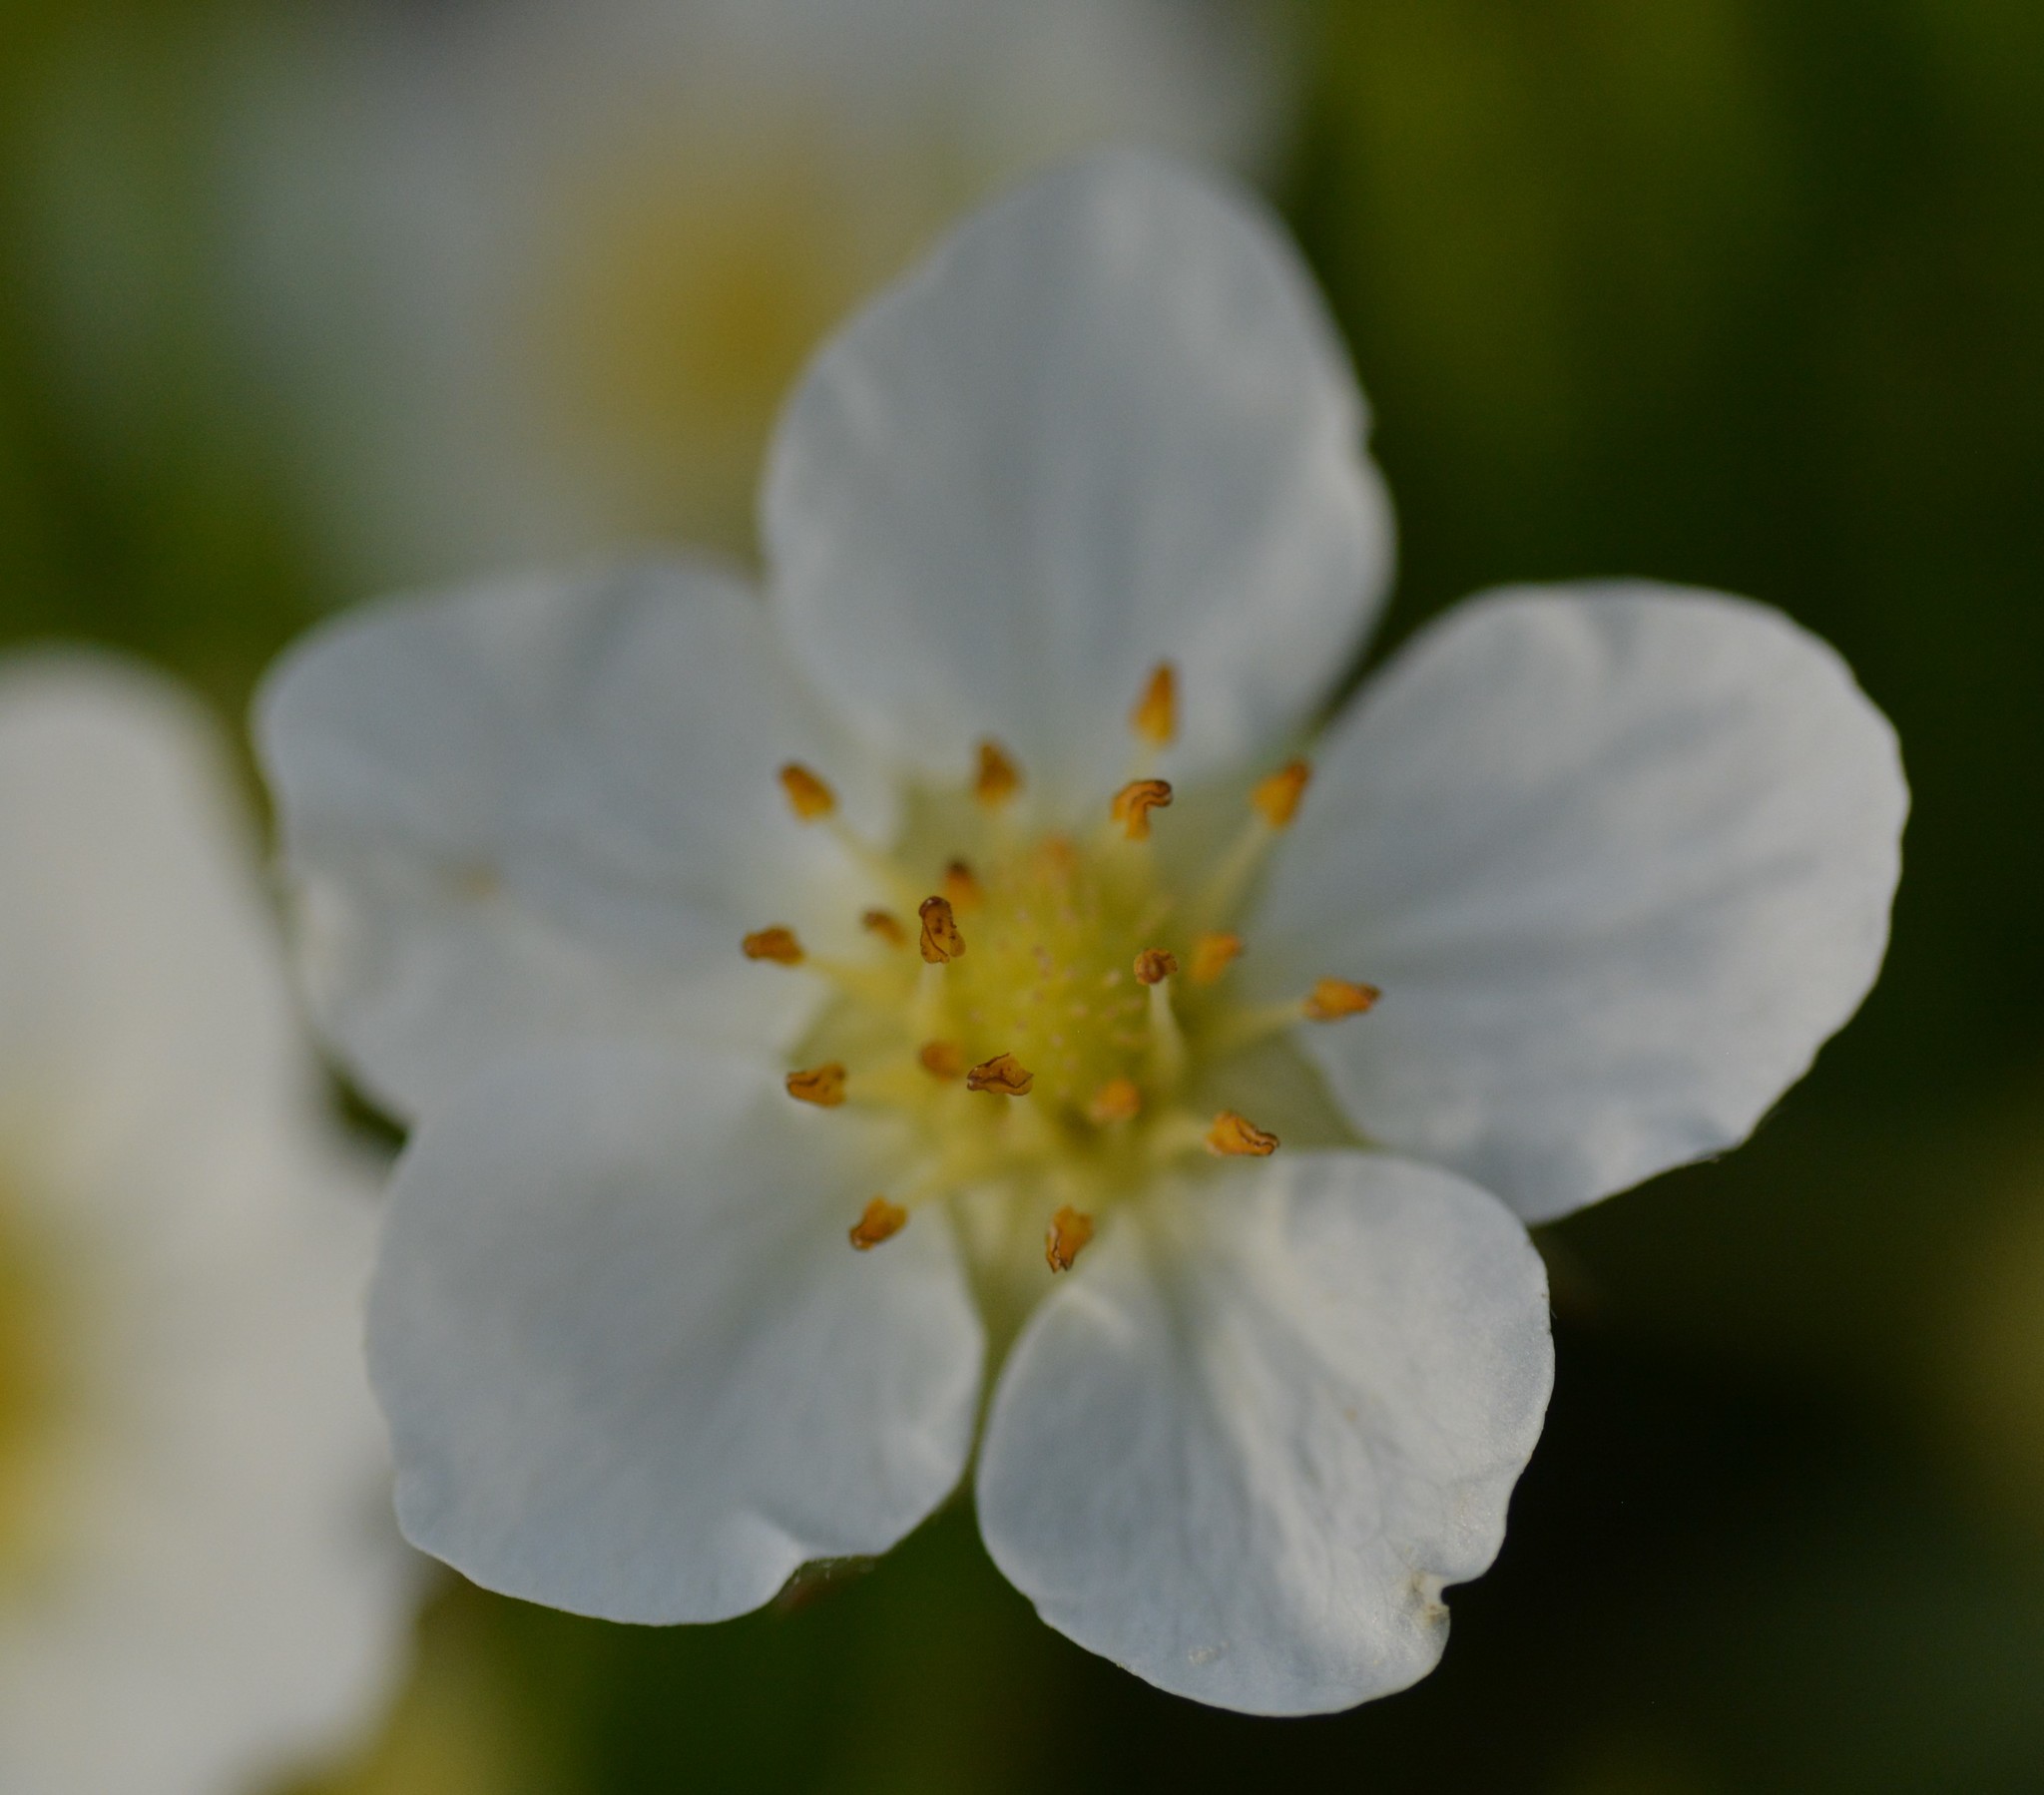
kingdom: Plantae
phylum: Tracheophyta
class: Magnoliopsida
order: Rosales
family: Rosaceae
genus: Fragaria
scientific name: Fragaria virginiana
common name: Thickleaved wild strawberry
